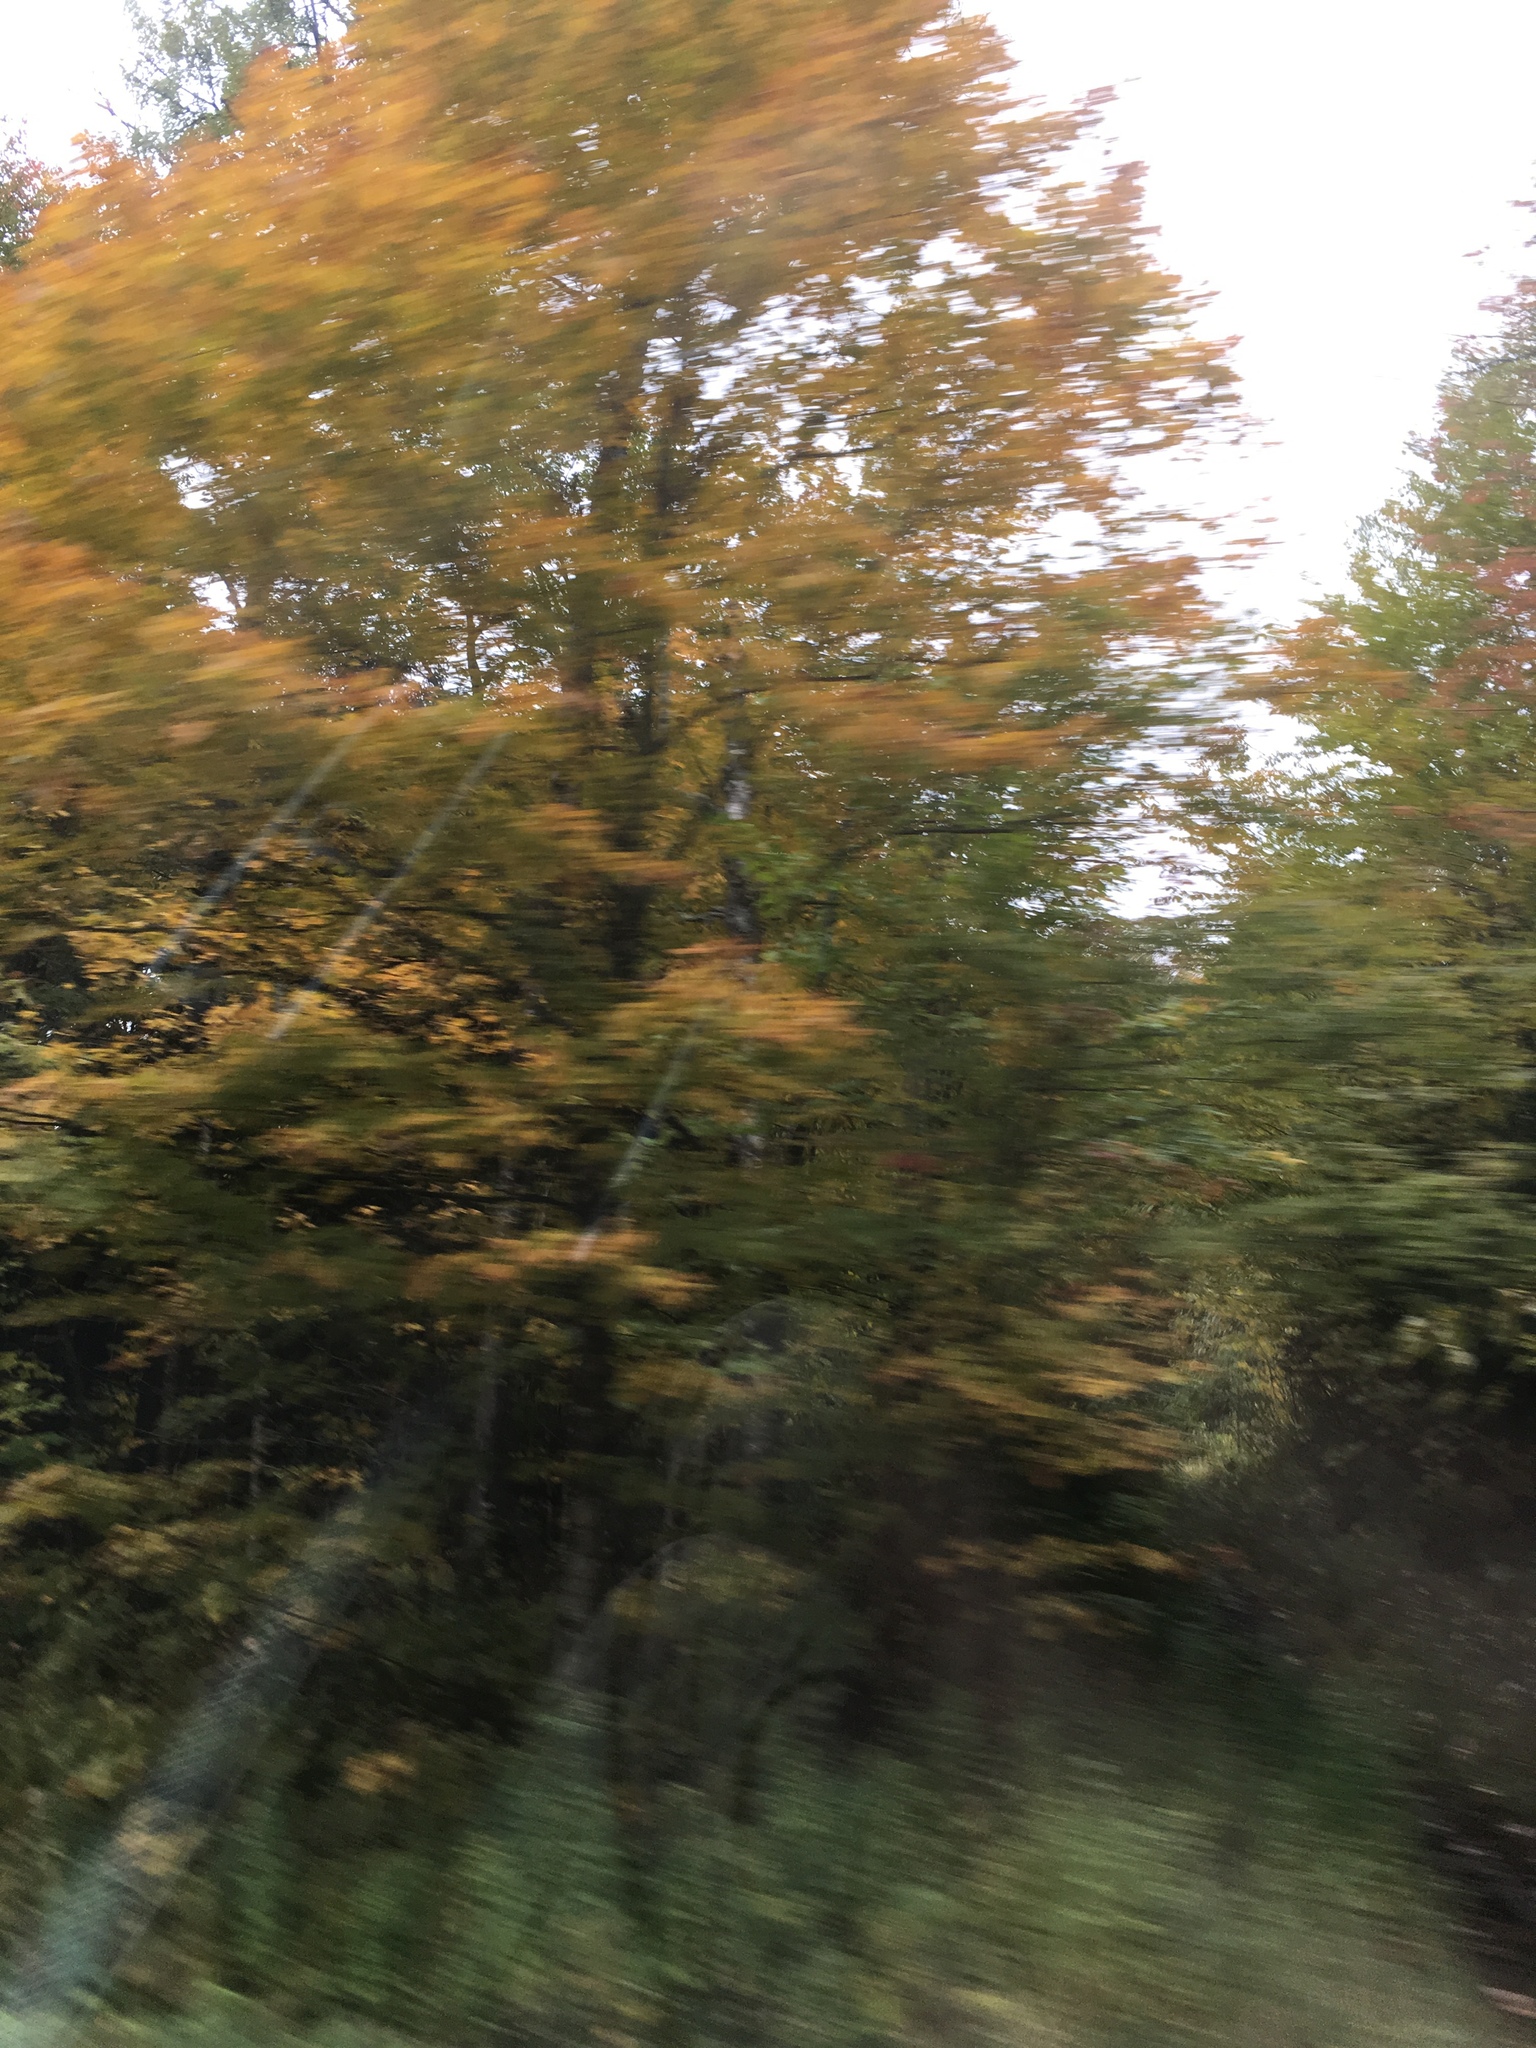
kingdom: Plantae
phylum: Tracheophyta
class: Magnoliopsida
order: Sapindales
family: Sapindaceae
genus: Acer
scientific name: Acer saccharum
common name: Sugar maple
